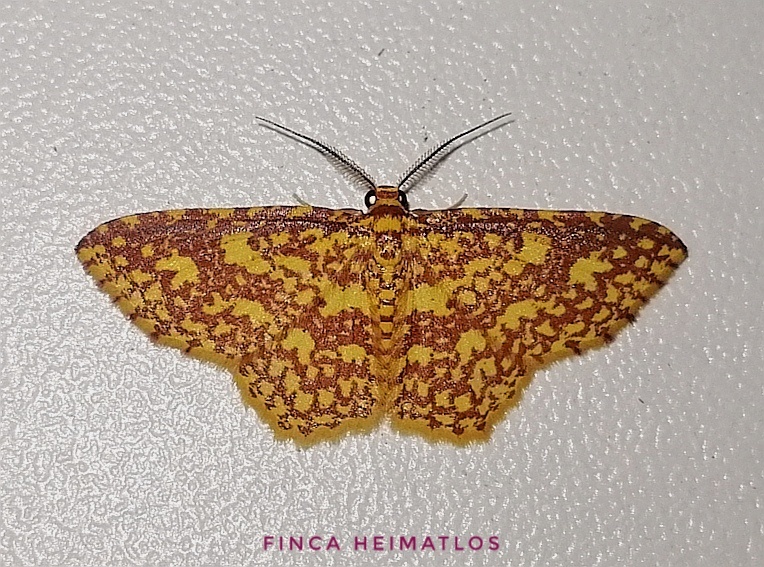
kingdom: Animalia
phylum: Arthropoda
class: Insecta
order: Lepidoptera
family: Geometridae
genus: Eois
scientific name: Eois cancellata
